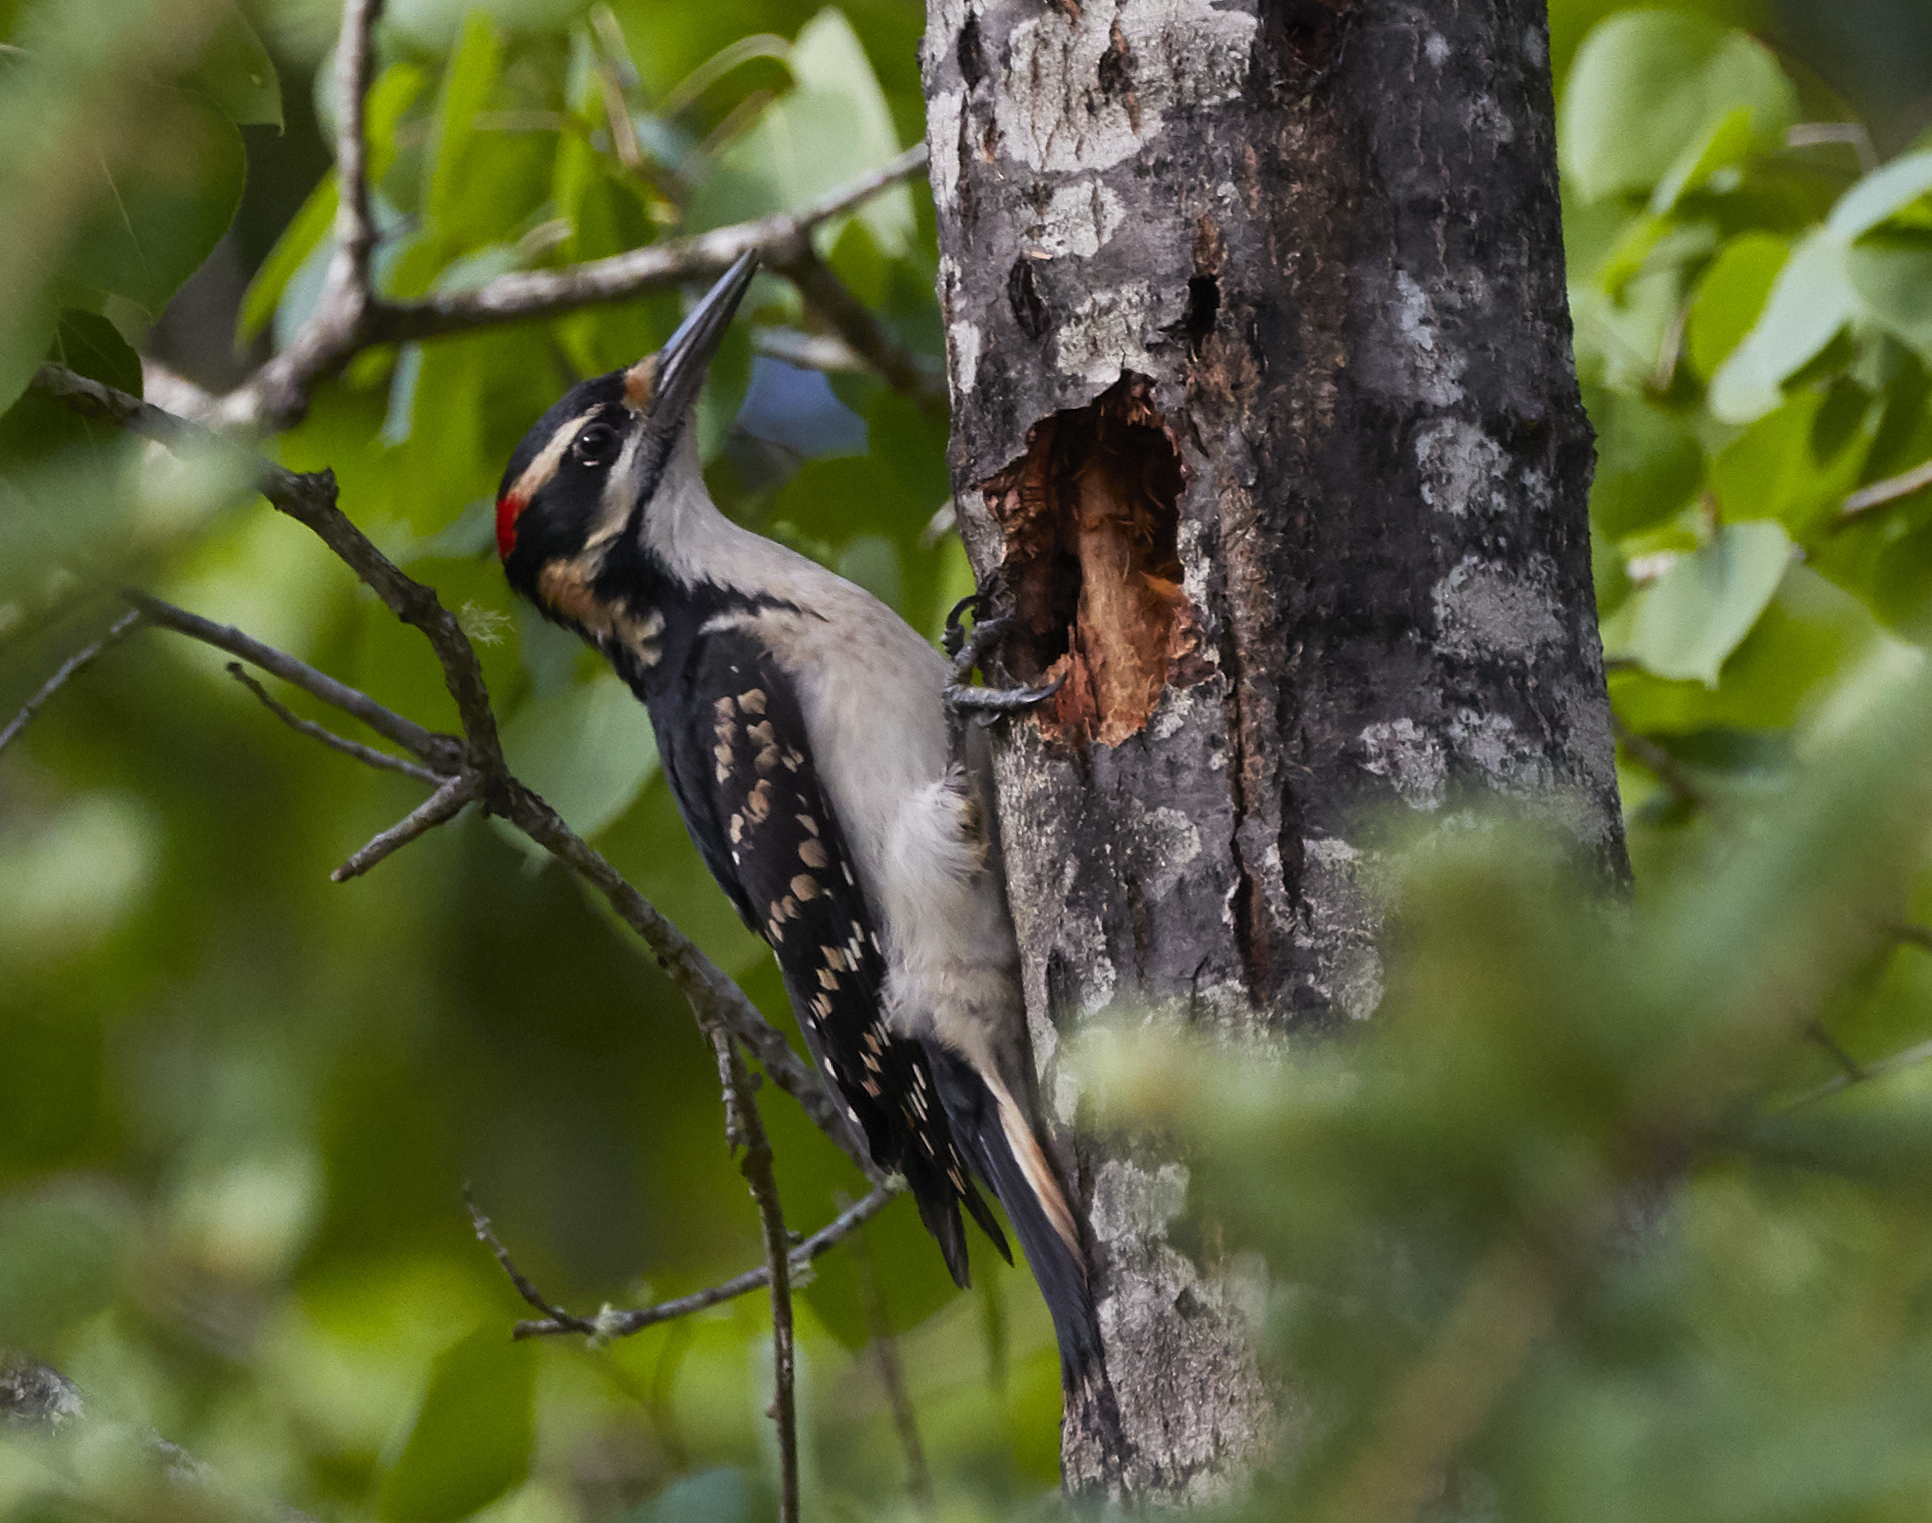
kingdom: Animalia
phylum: Chordata
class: Aves
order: Piciformes
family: Picidae
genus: Leuconotopicus
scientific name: Leuconotopicus villosus
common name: Hairy woodpecker
